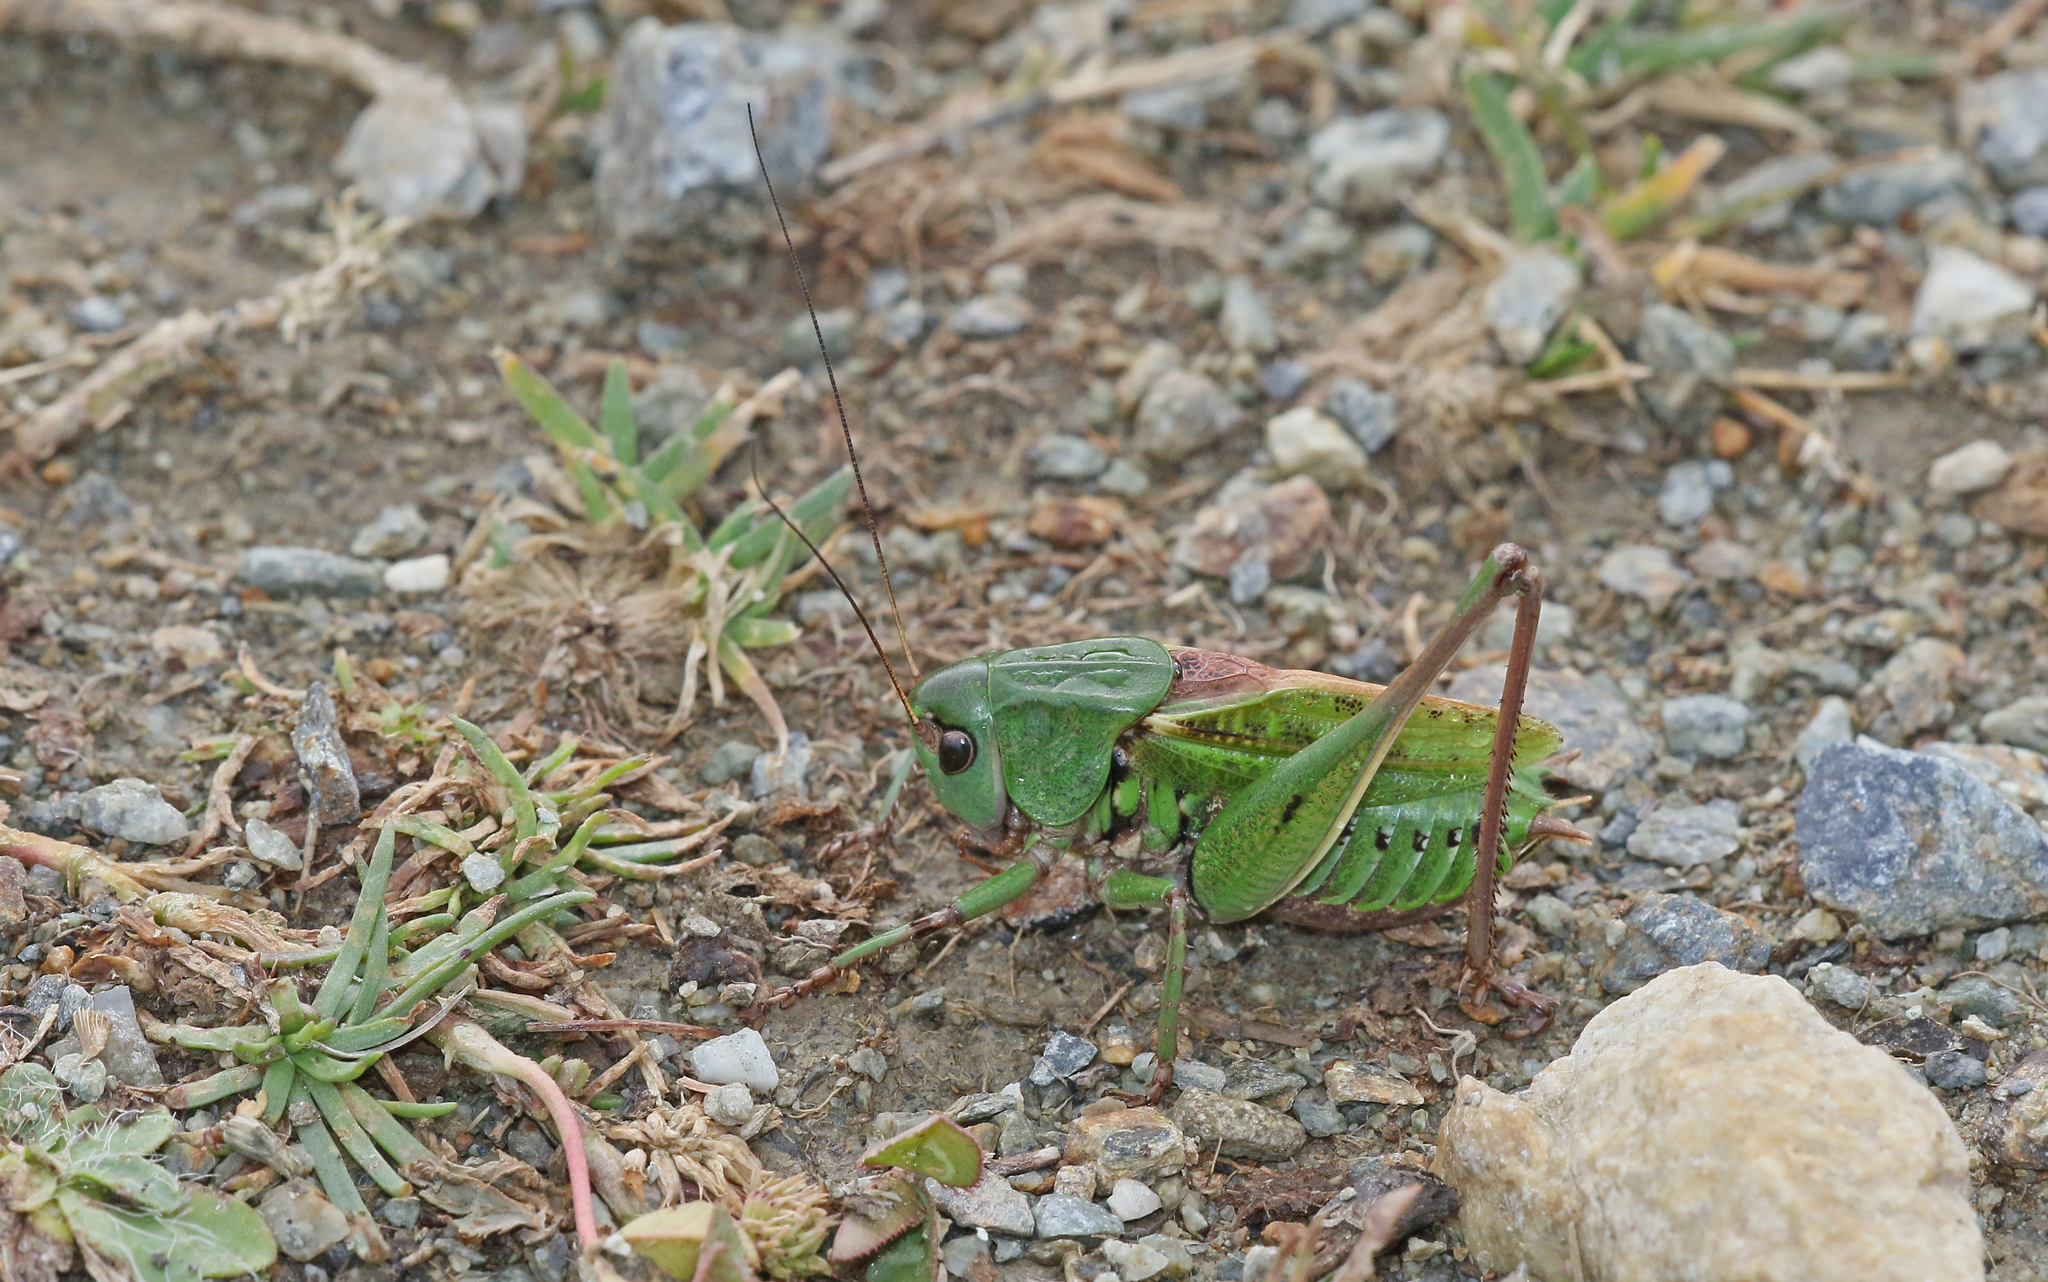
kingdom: Animalia
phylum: Arthropoda
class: Insecta
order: Orthoptera
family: Tettigoniidae
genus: Decticus
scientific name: Decticus verrucivorus
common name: Wart-biter
